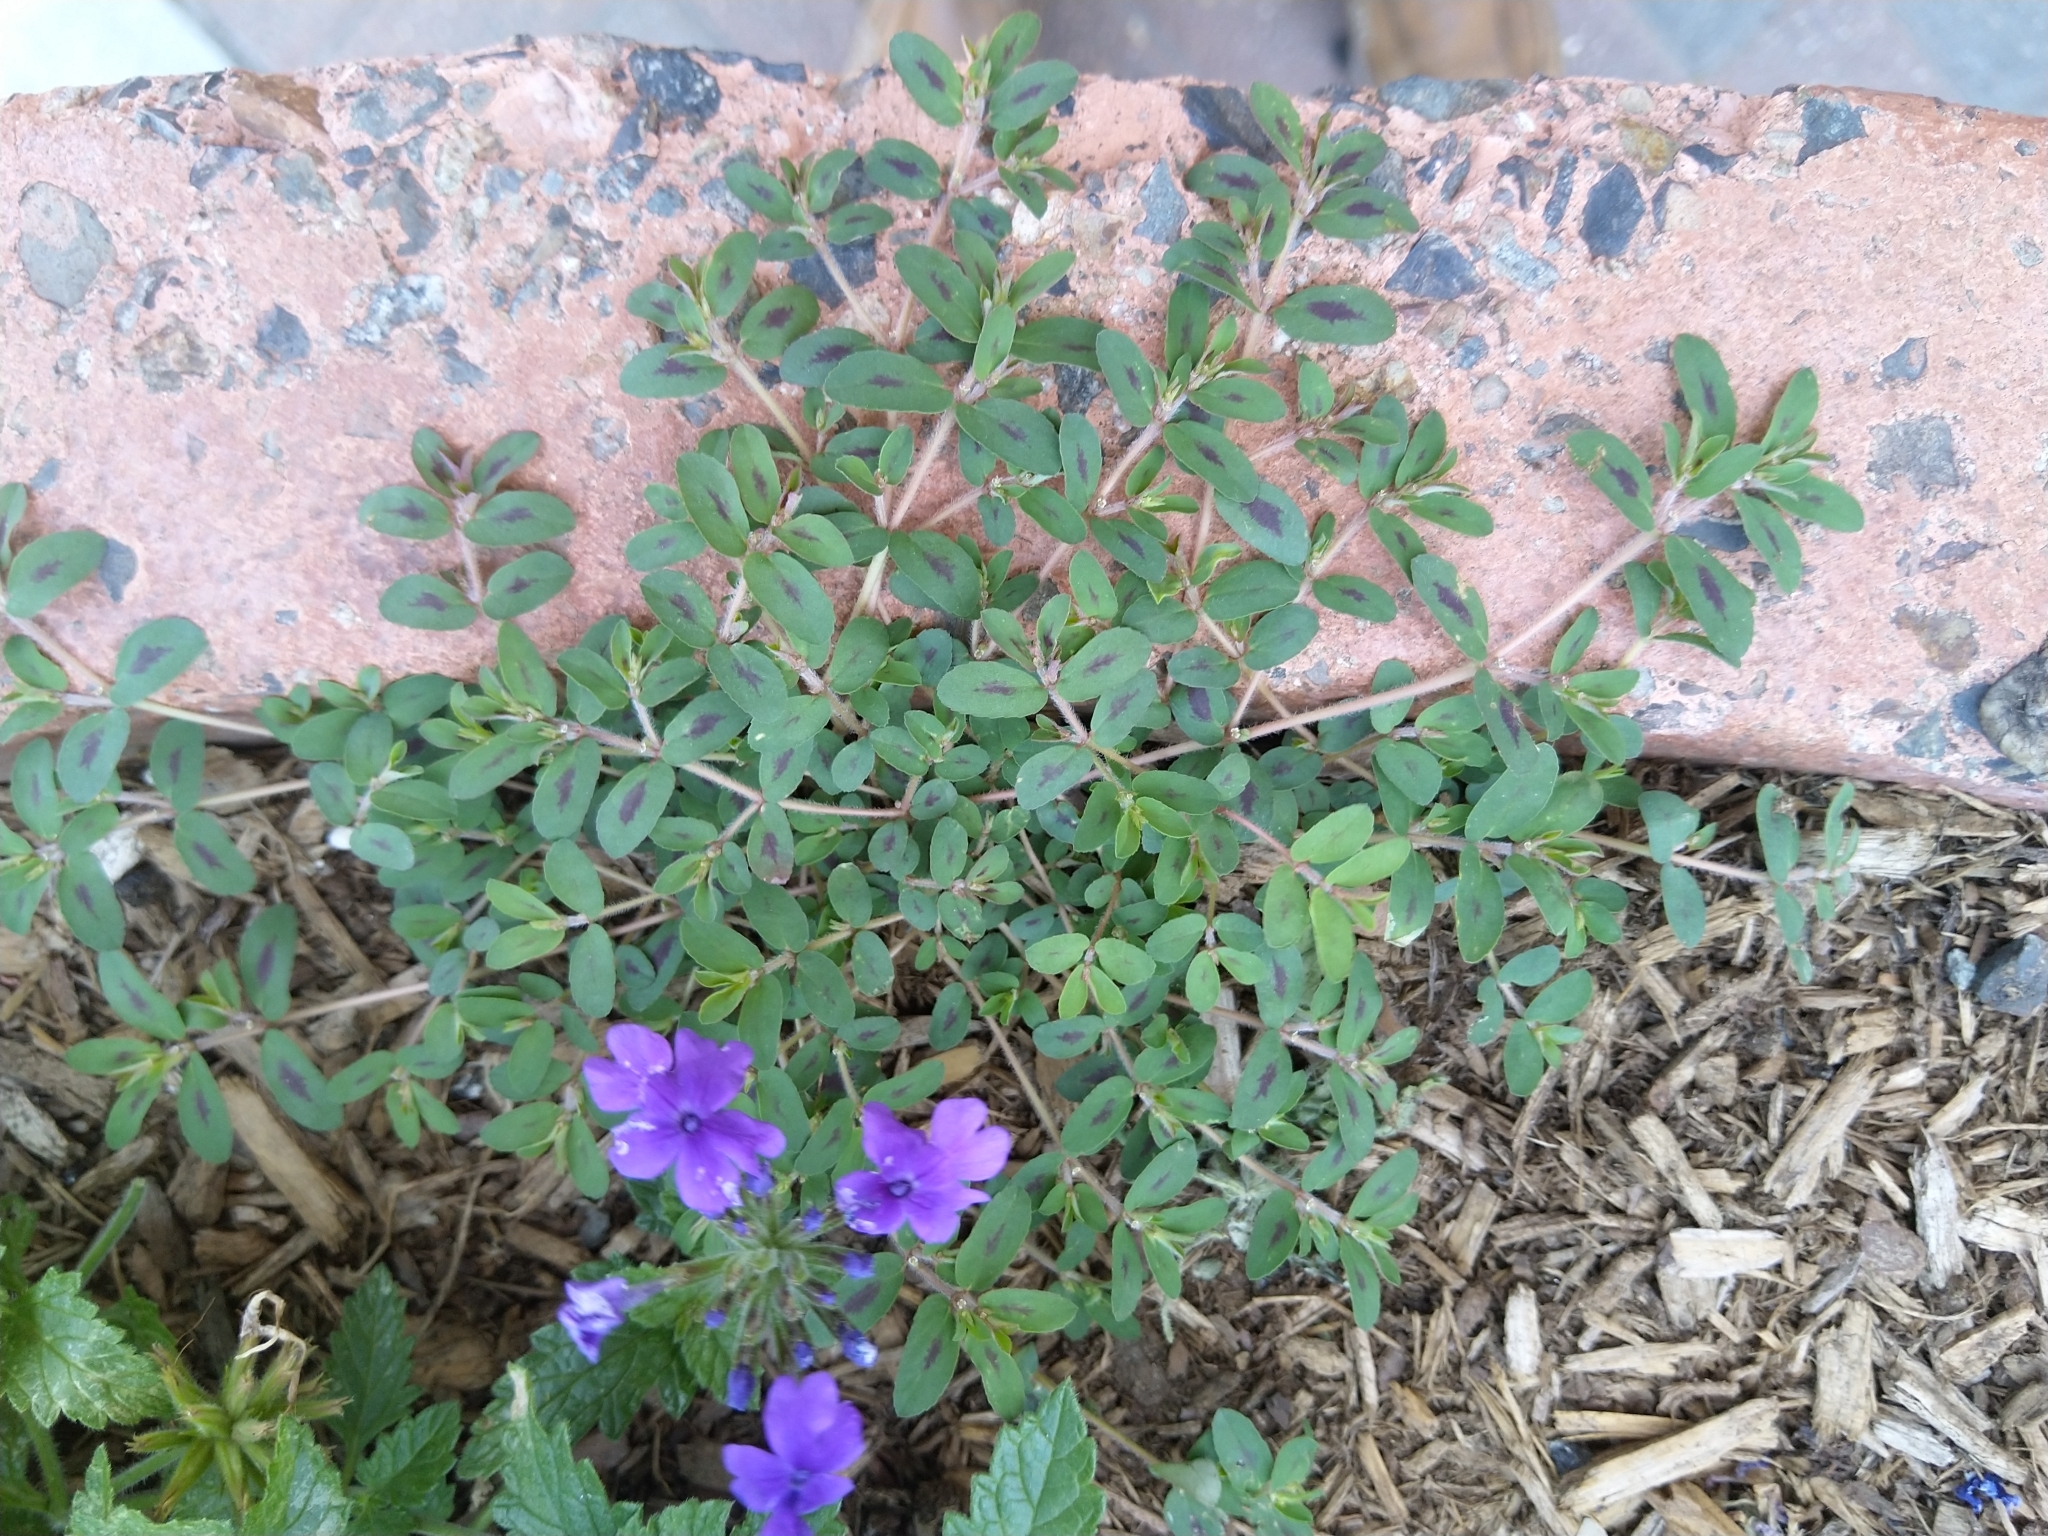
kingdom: Plantae
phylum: Tracheophyta
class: Magnoliopsida
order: Malpighiales
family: Euphorbiaceae
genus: Euphorbia
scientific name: Euphorbia maculata
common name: Spotted spurge
